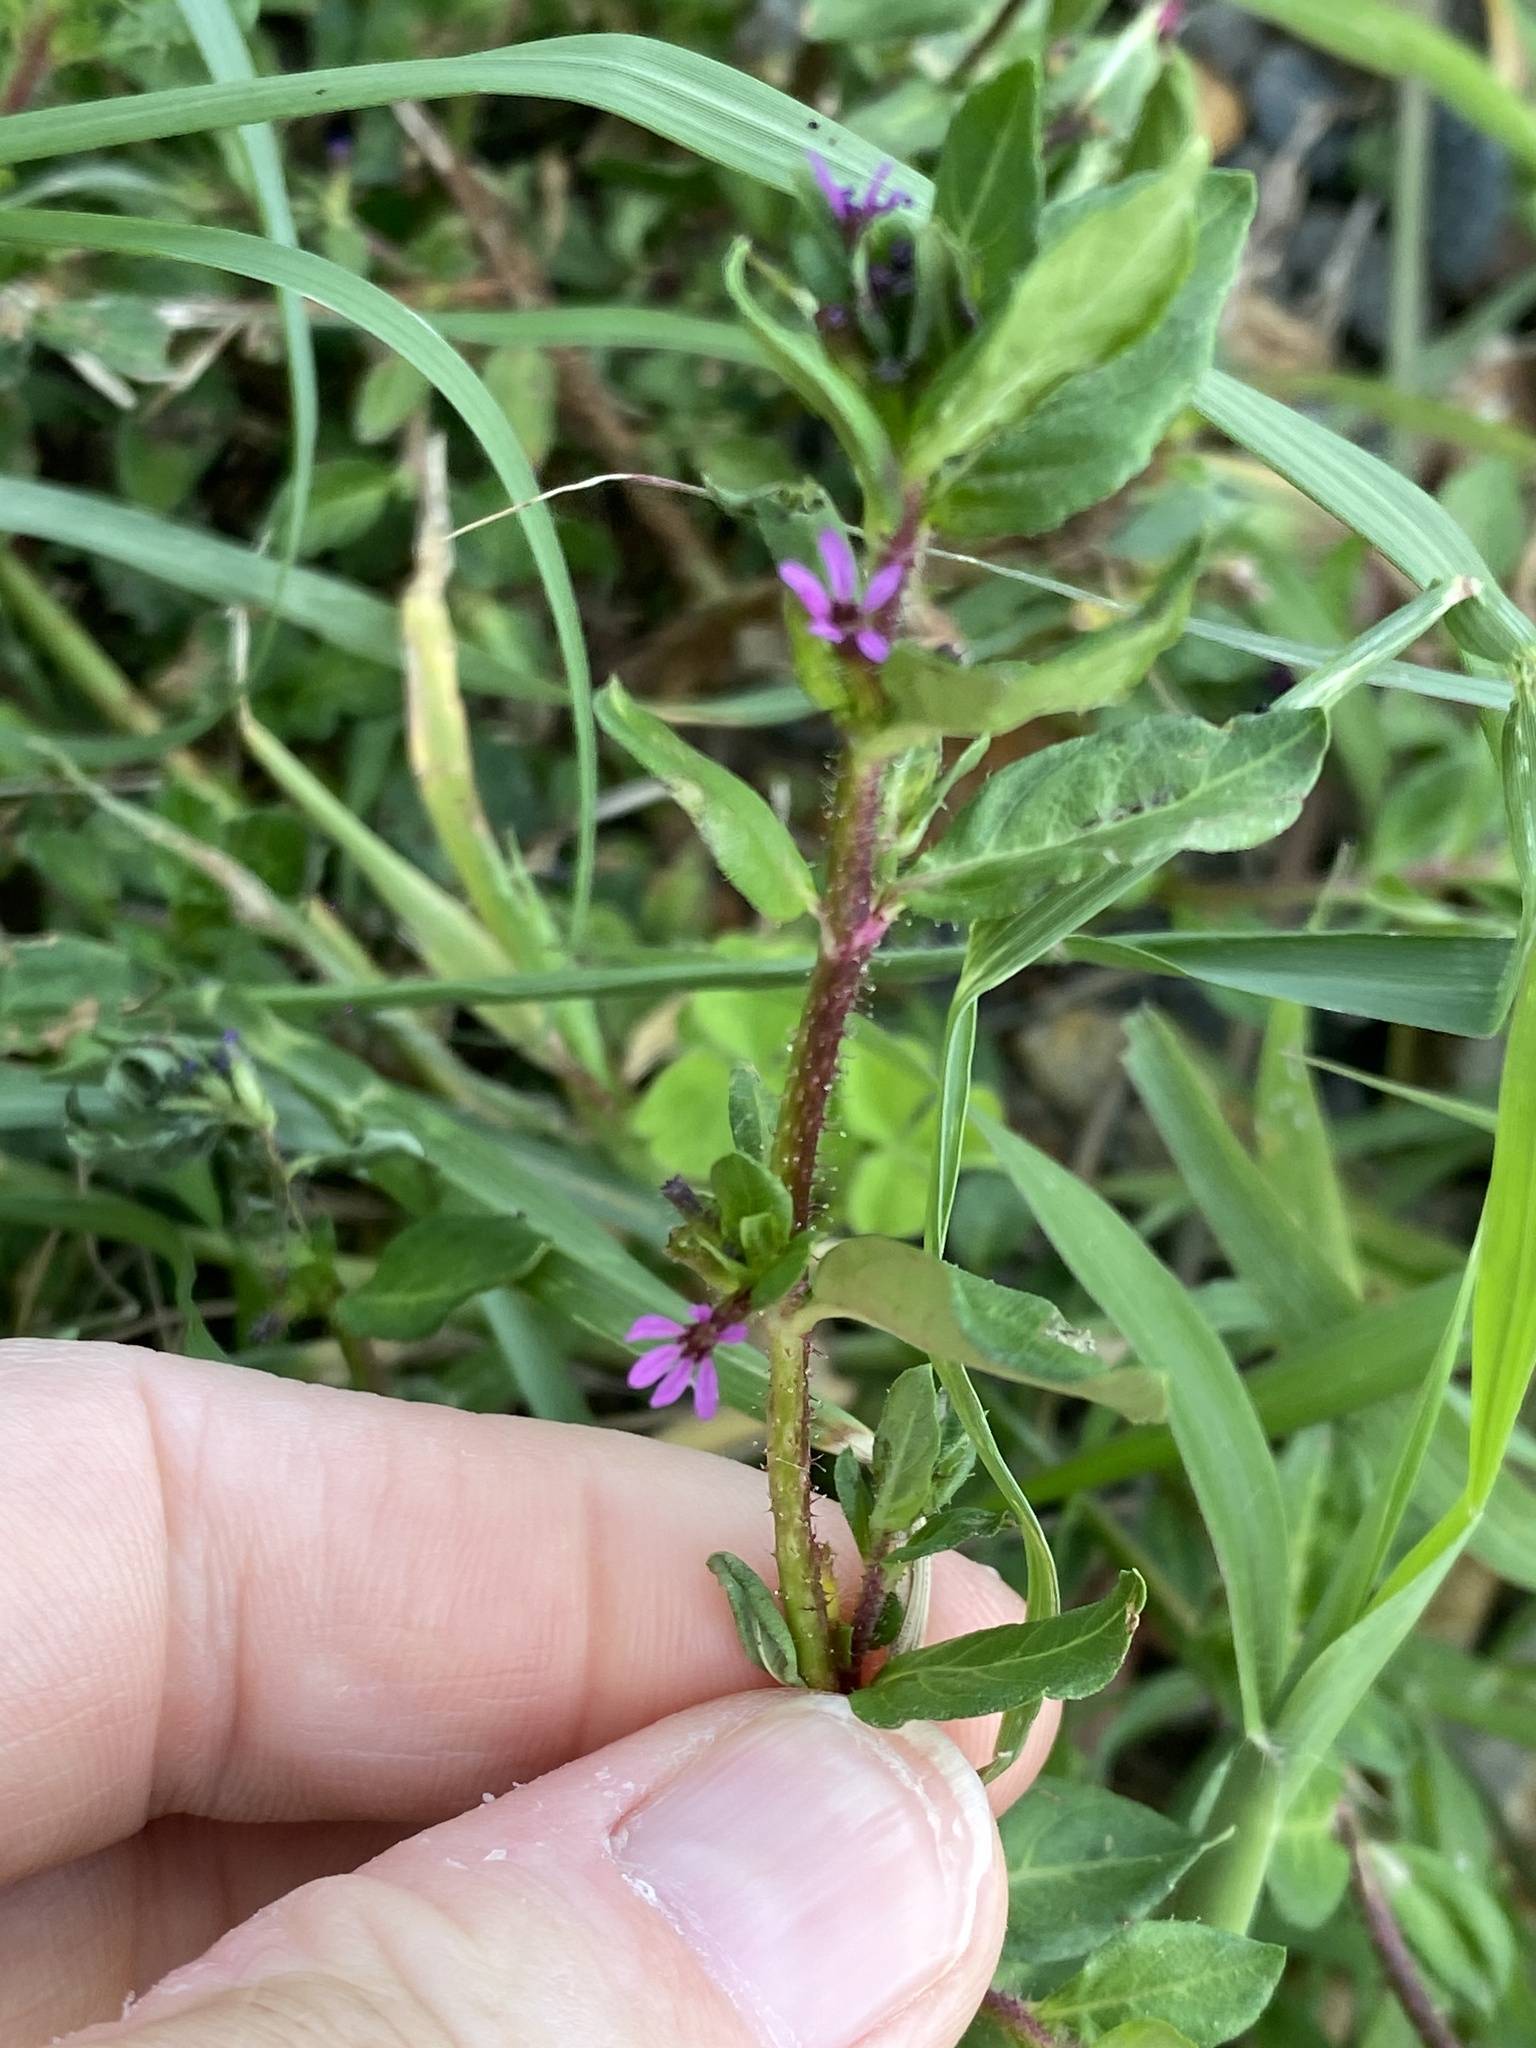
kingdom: Plantae
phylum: Tracheophyta
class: Magnoliopsida
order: Myrtales
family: Lythraceae
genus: Cuphea
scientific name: Cuphea carthagenensis
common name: Colombian waxweed
